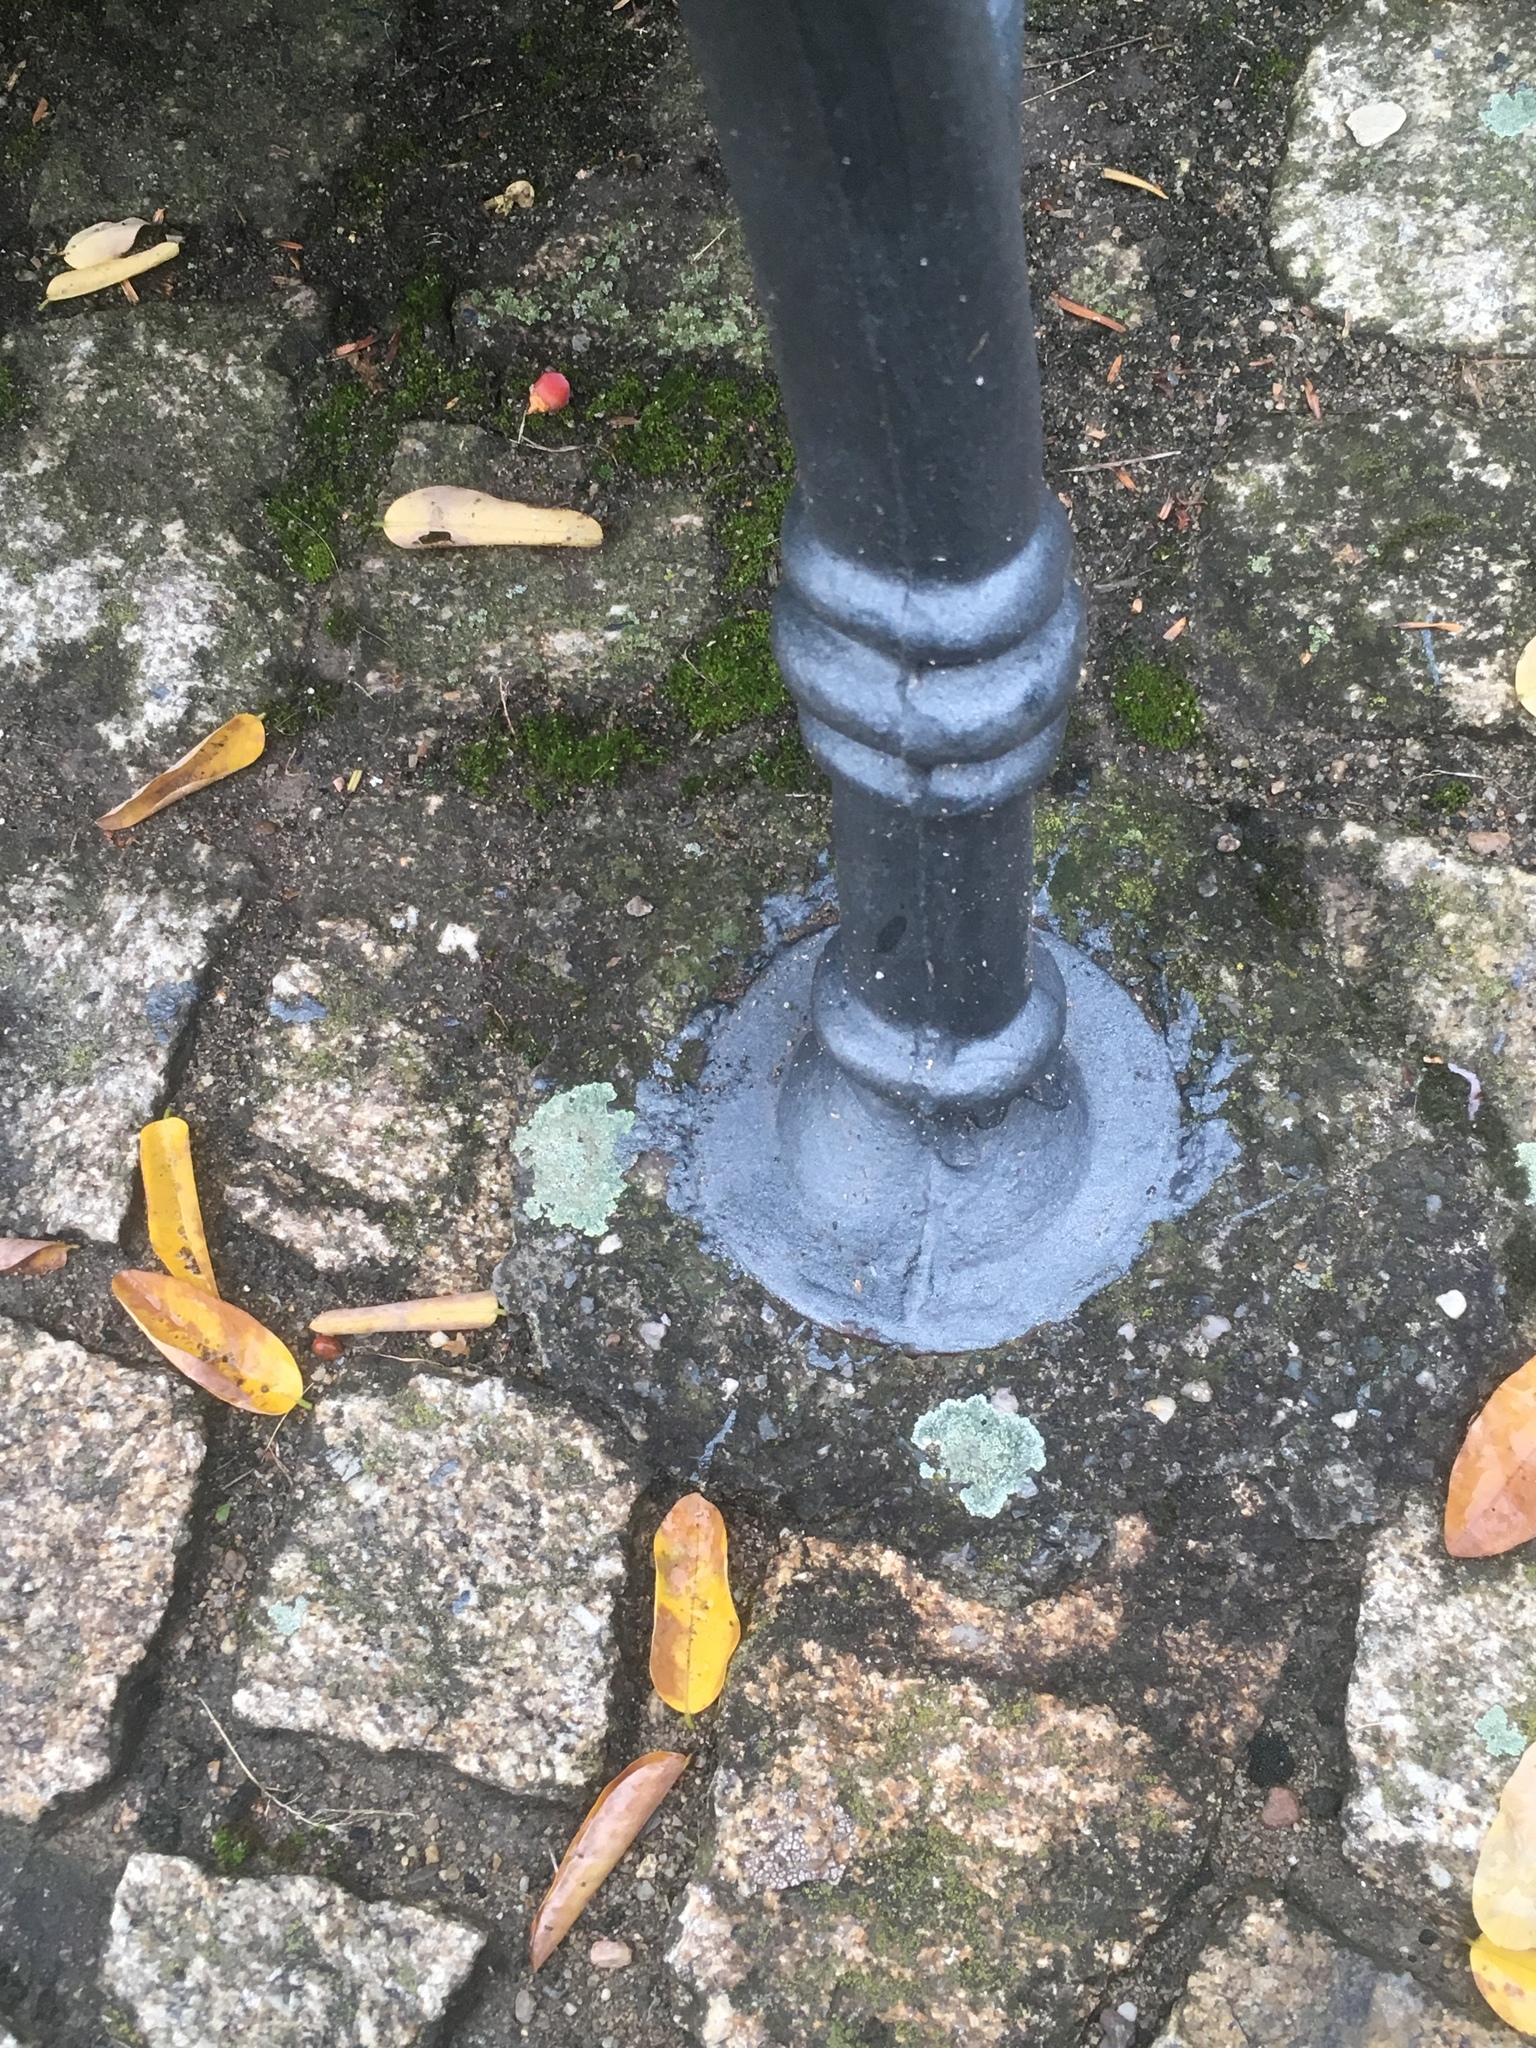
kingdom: Fungi
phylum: Ascomycota
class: Lecanoromycetes
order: Lecanorales
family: Lecanoraceae
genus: Protoparmeliopsis
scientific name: Protoparmeliopsis muralis
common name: Stonewall rim lichen
